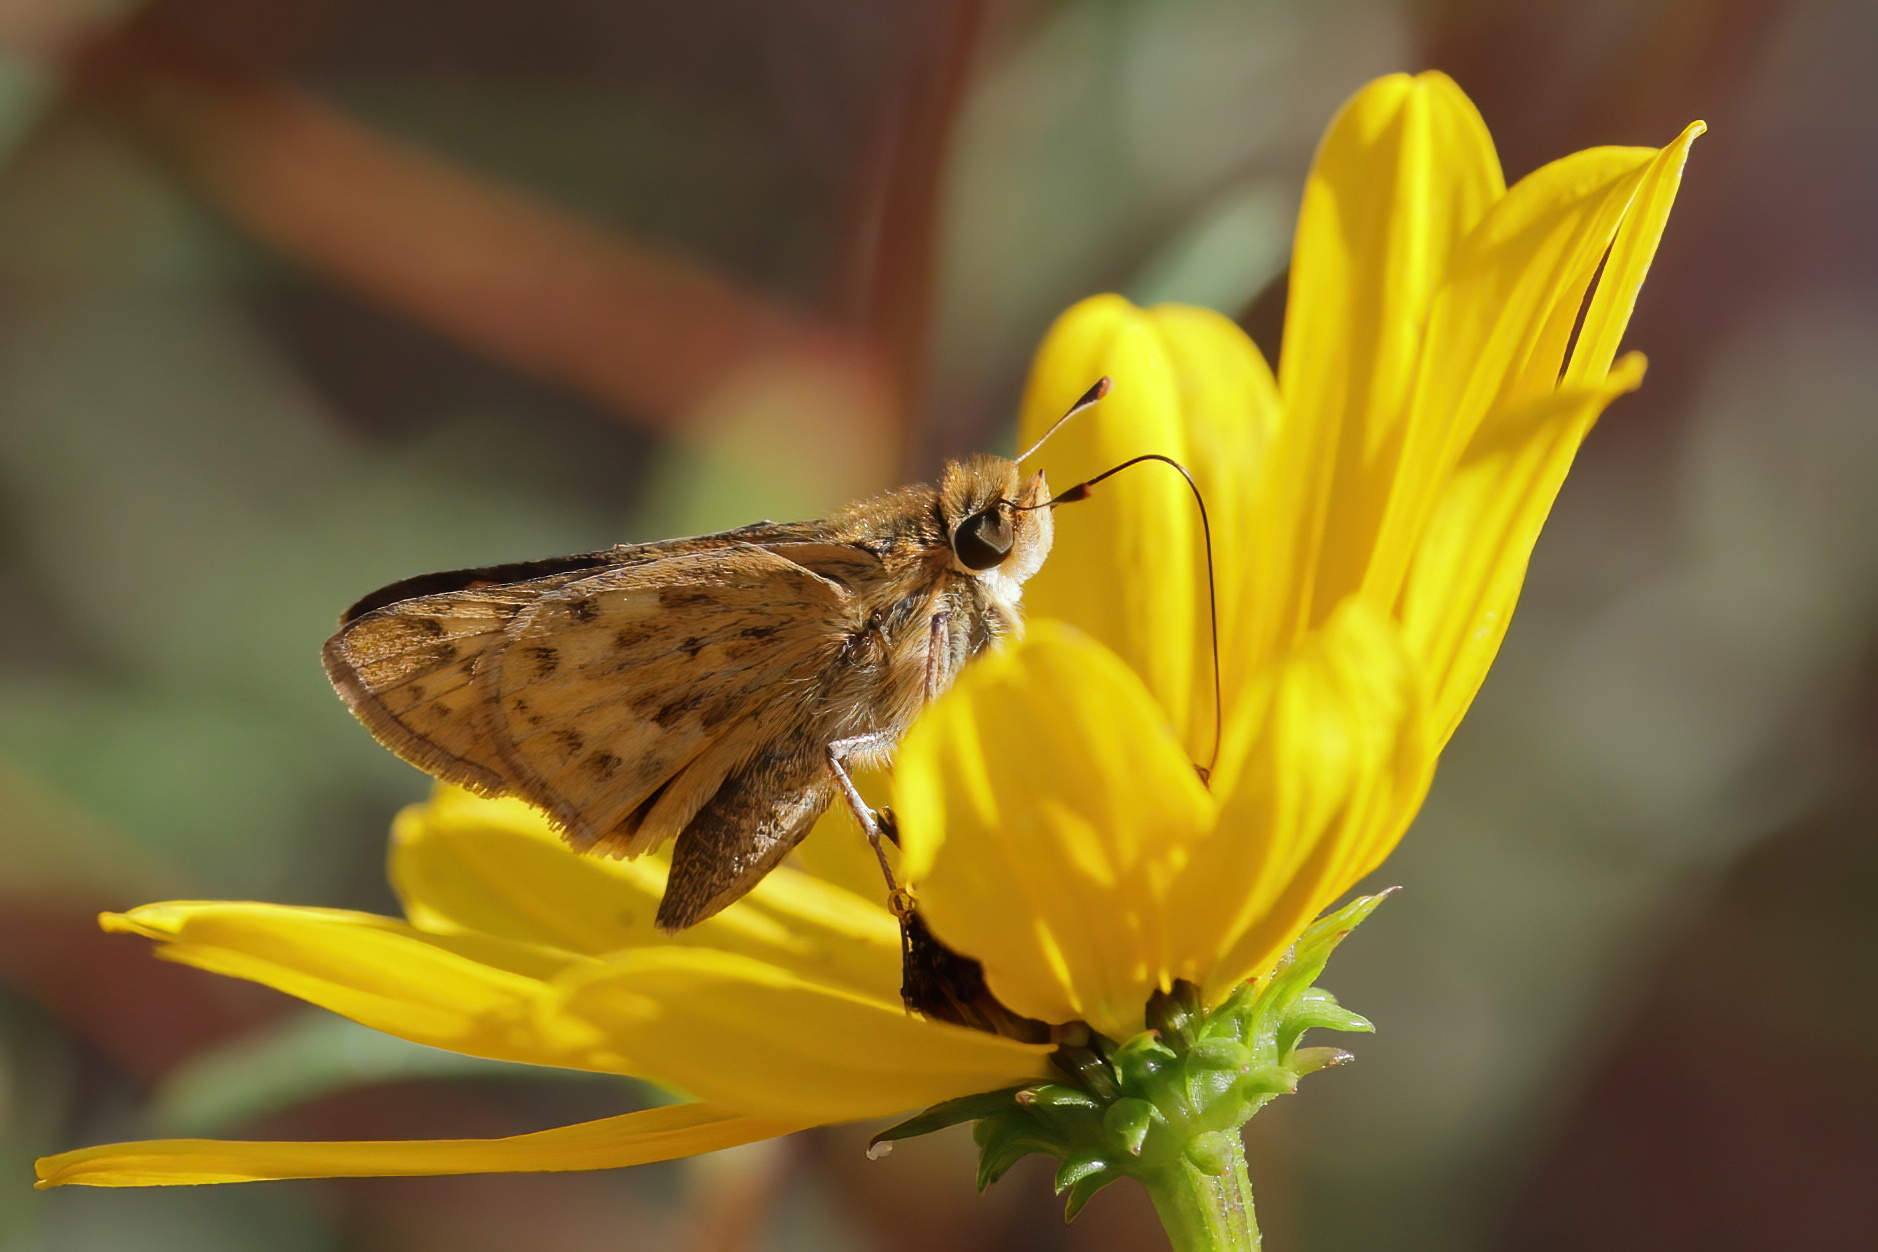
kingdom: Animalia
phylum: Arthropoda
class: Insecta
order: Lepidoptera
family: Hesperiidae
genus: Hylephila
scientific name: Hylephila phyleus
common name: Fiery skipper
